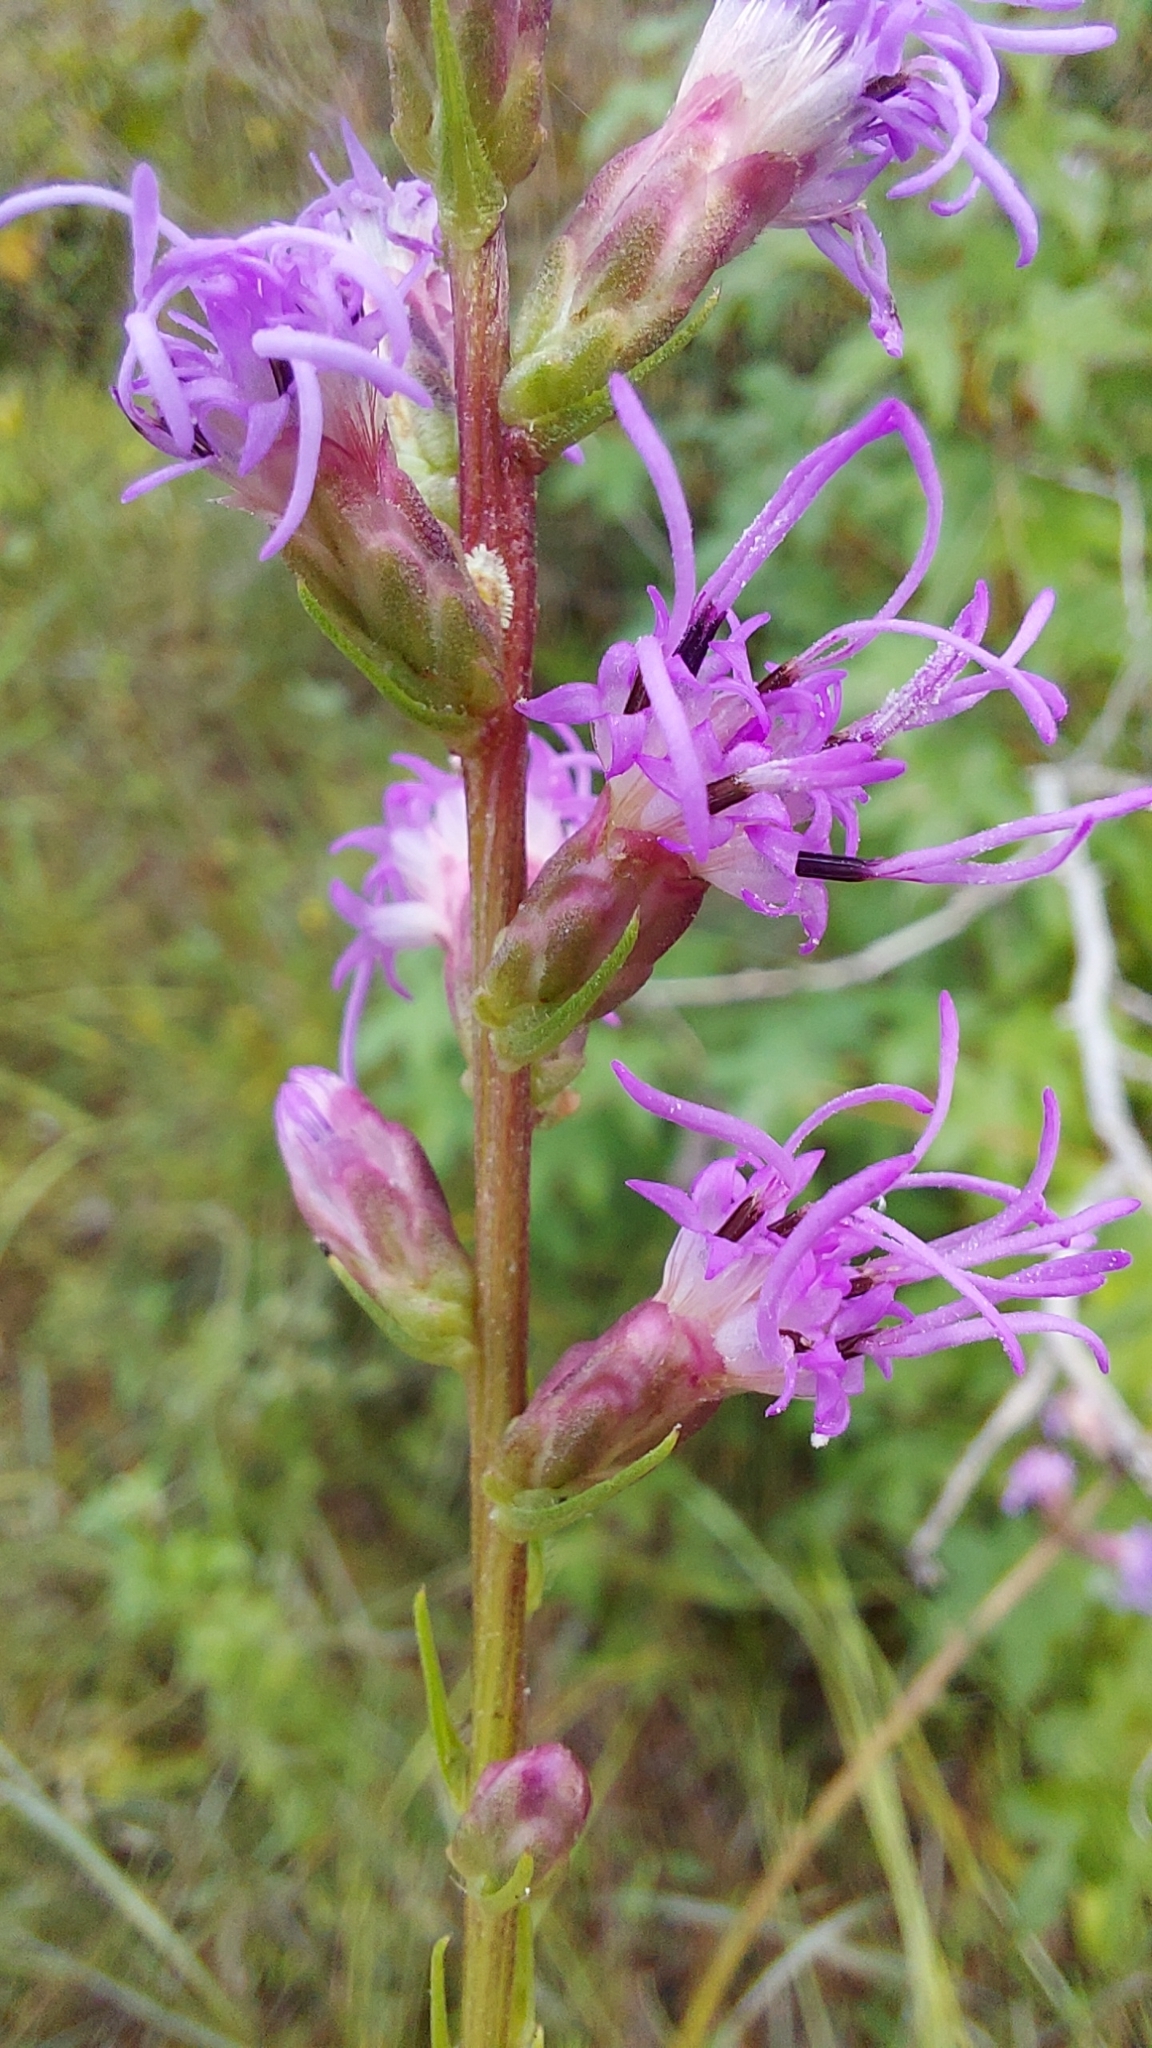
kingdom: Plantae
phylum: Tracheophyta
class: Magnoliopsida
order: Asterales
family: Asteraceae
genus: Liatris
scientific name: Liatris spicata
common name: Florist gayfeather
